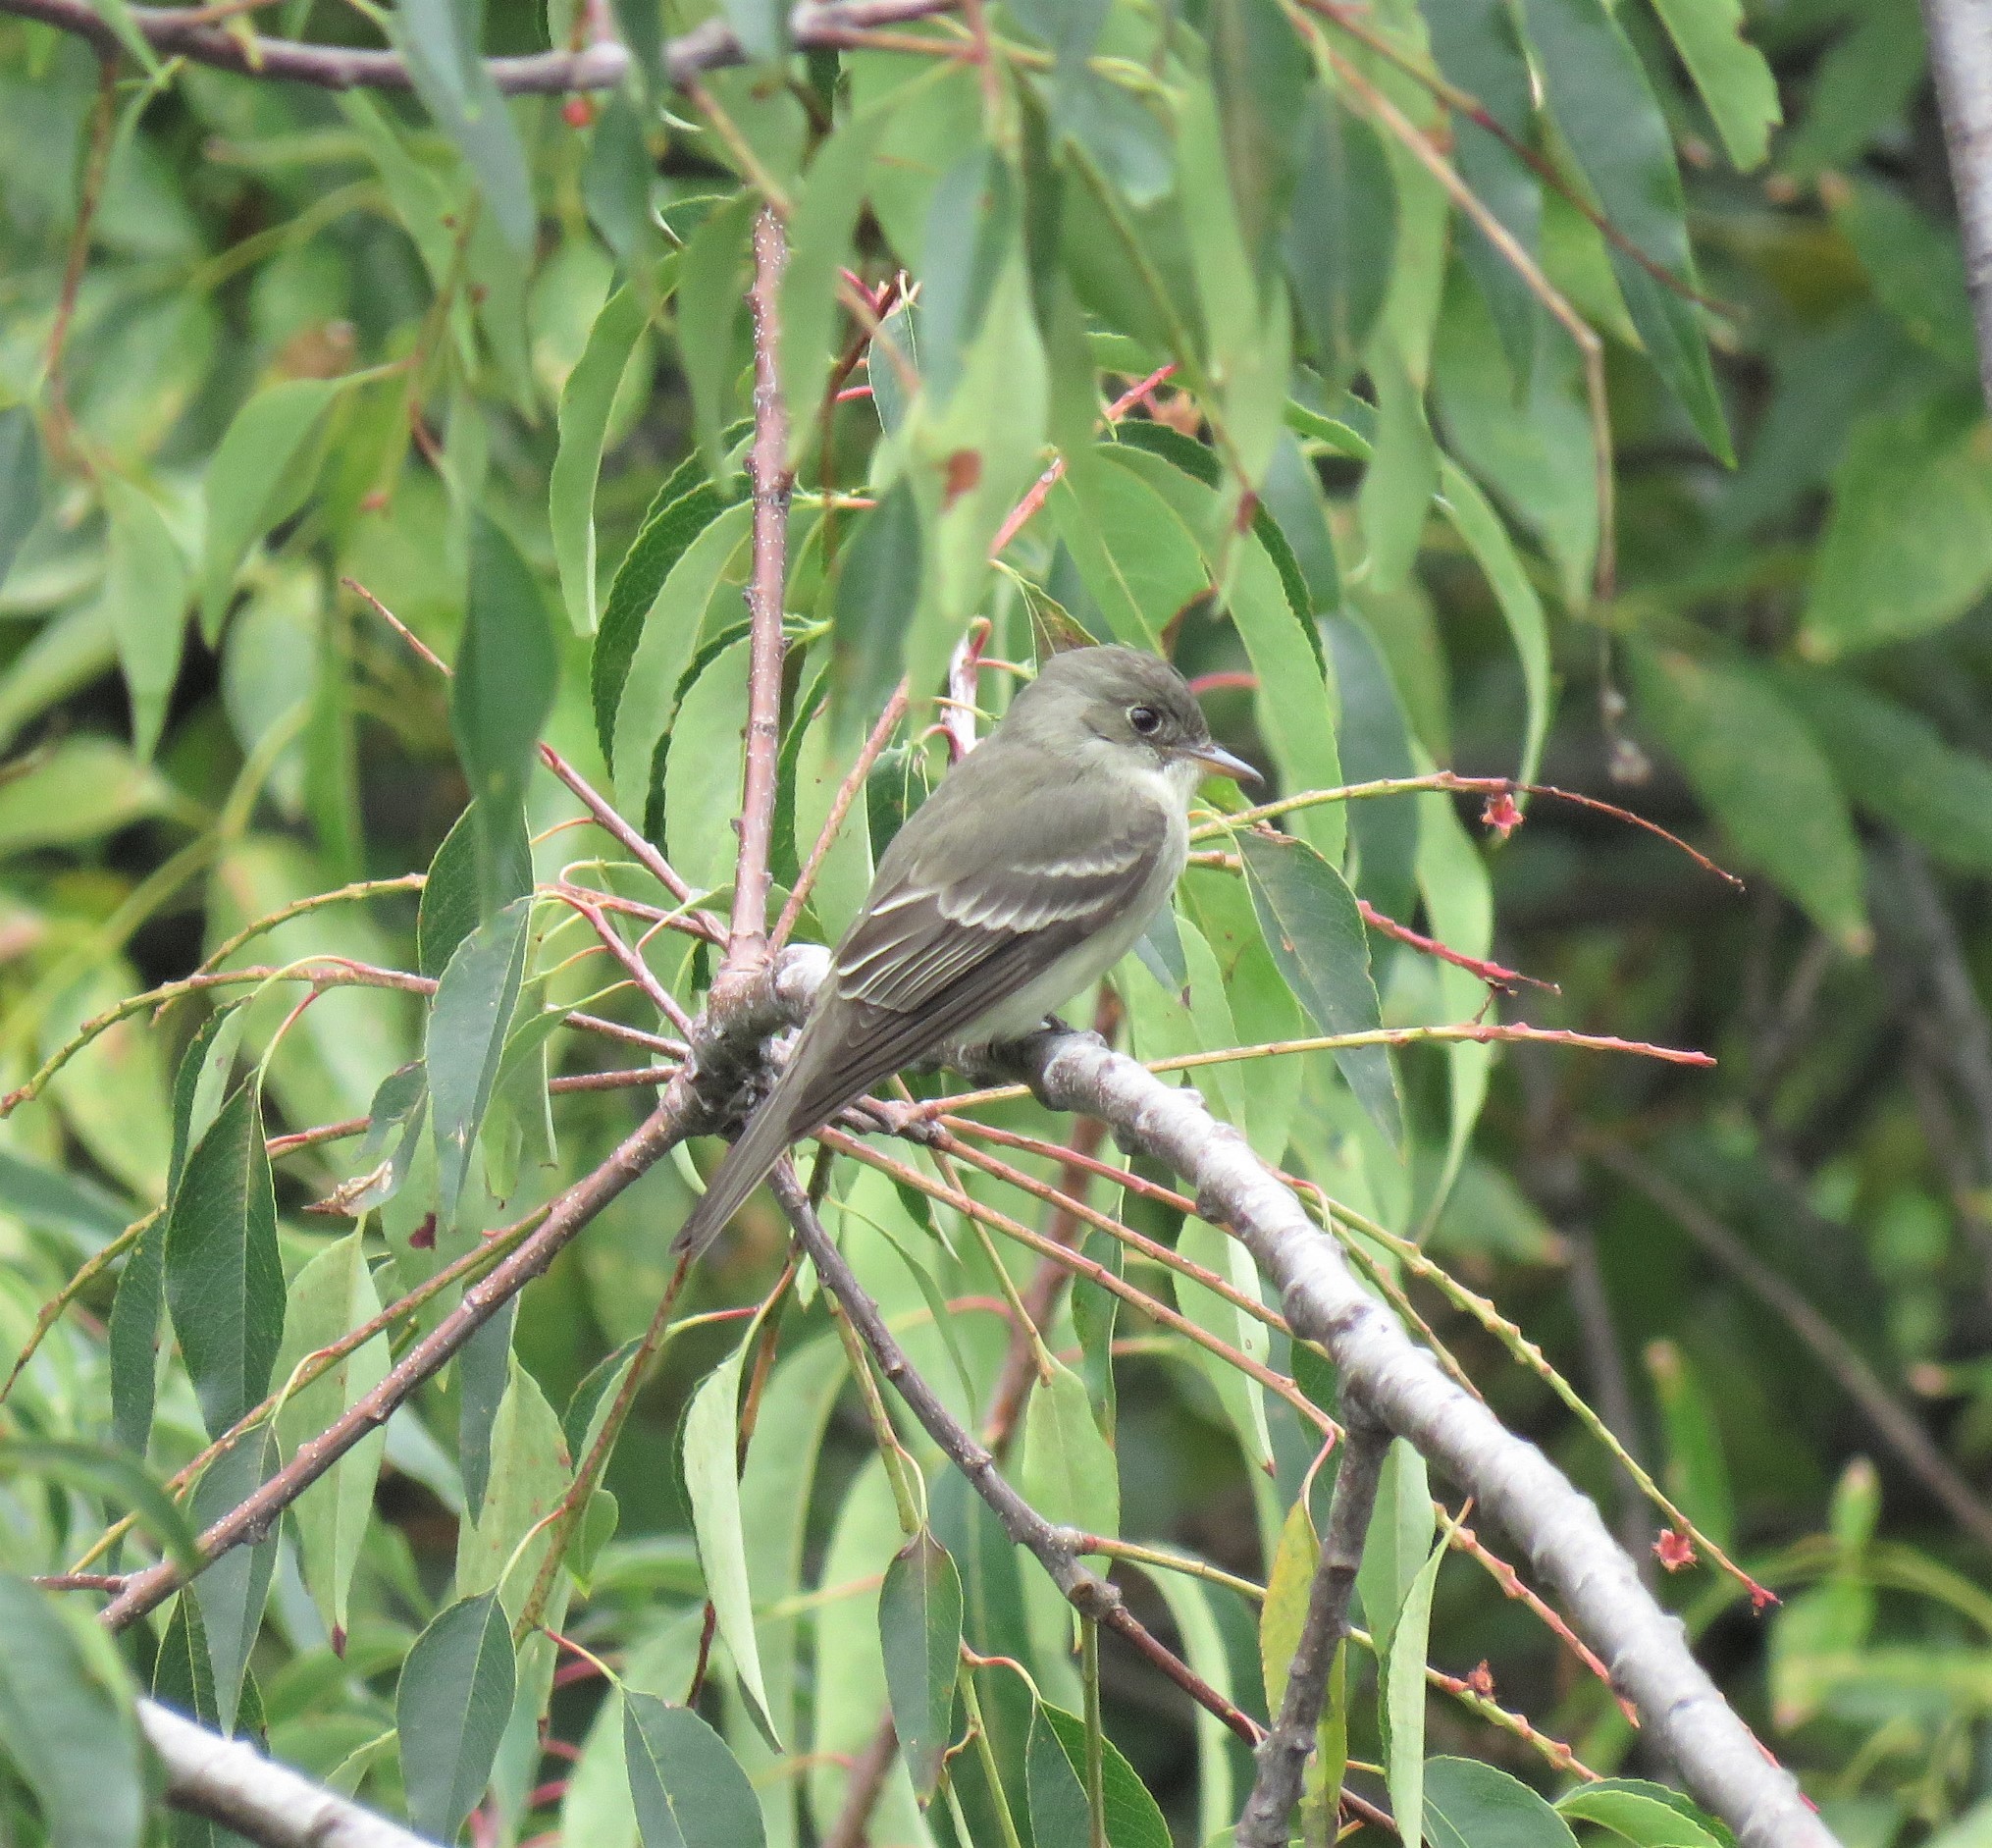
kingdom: Animalia
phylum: Chordata
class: Aves
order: Passeriformes
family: Tyrannidae
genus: Contopus
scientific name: Contopus virens
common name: Eastern wood-pewee
